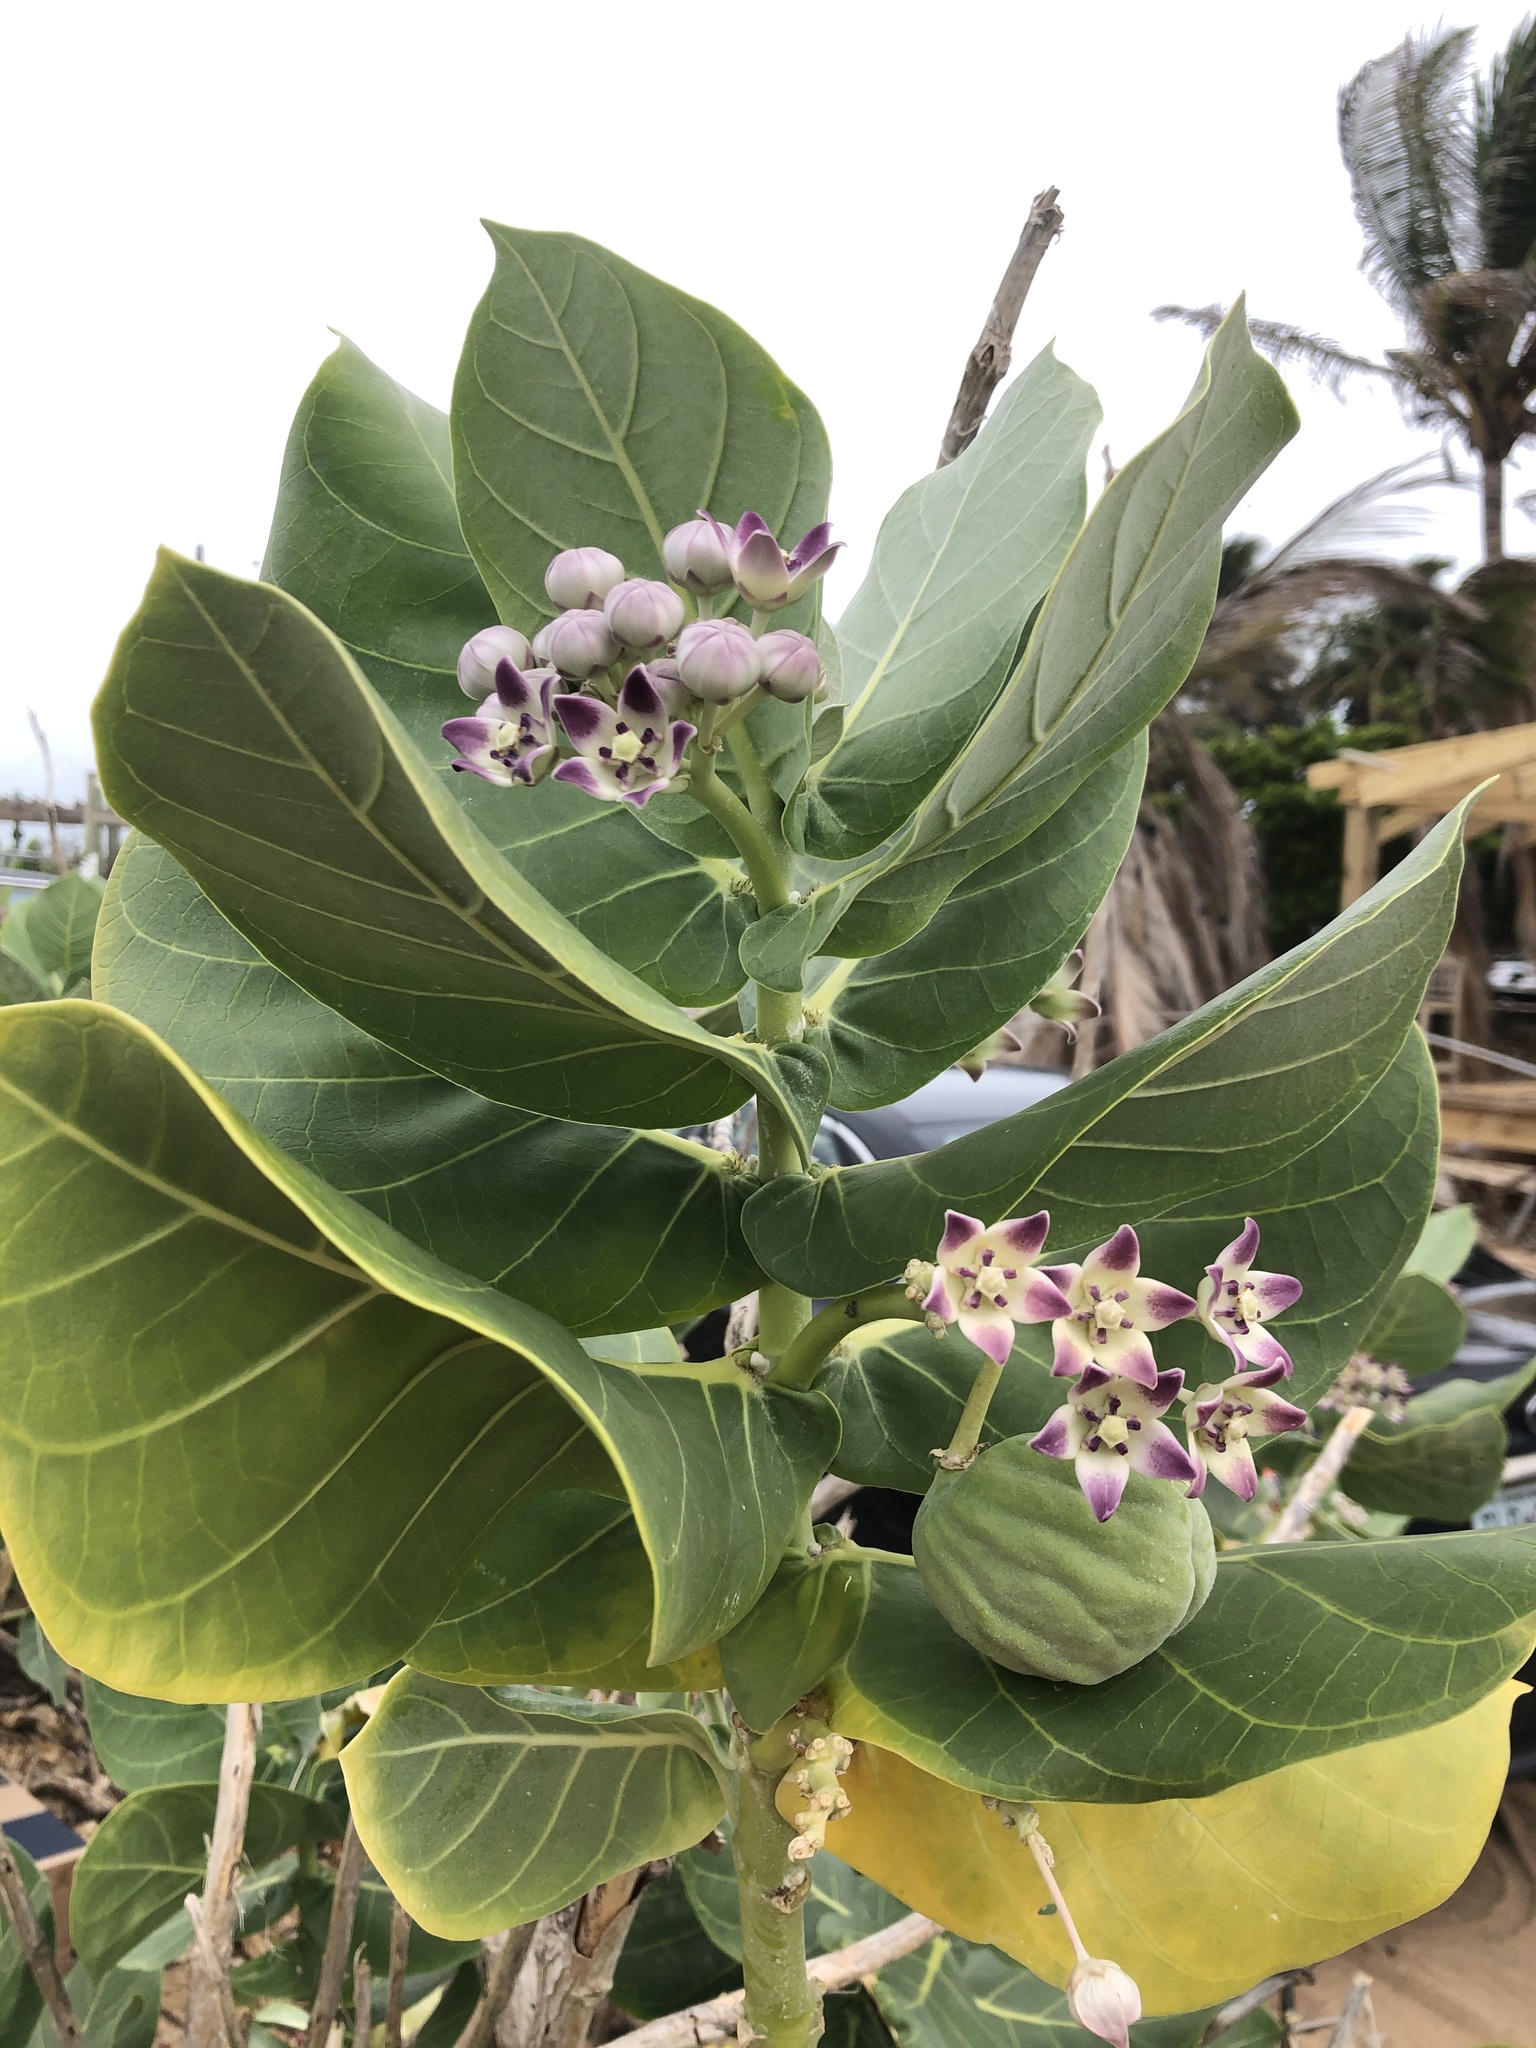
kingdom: Plantae
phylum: Tracheophyta
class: Magnoliopsida
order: Gentianales
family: Apocynaceae
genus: Calotropis
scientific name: Calotropis procera
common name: Roostertree
